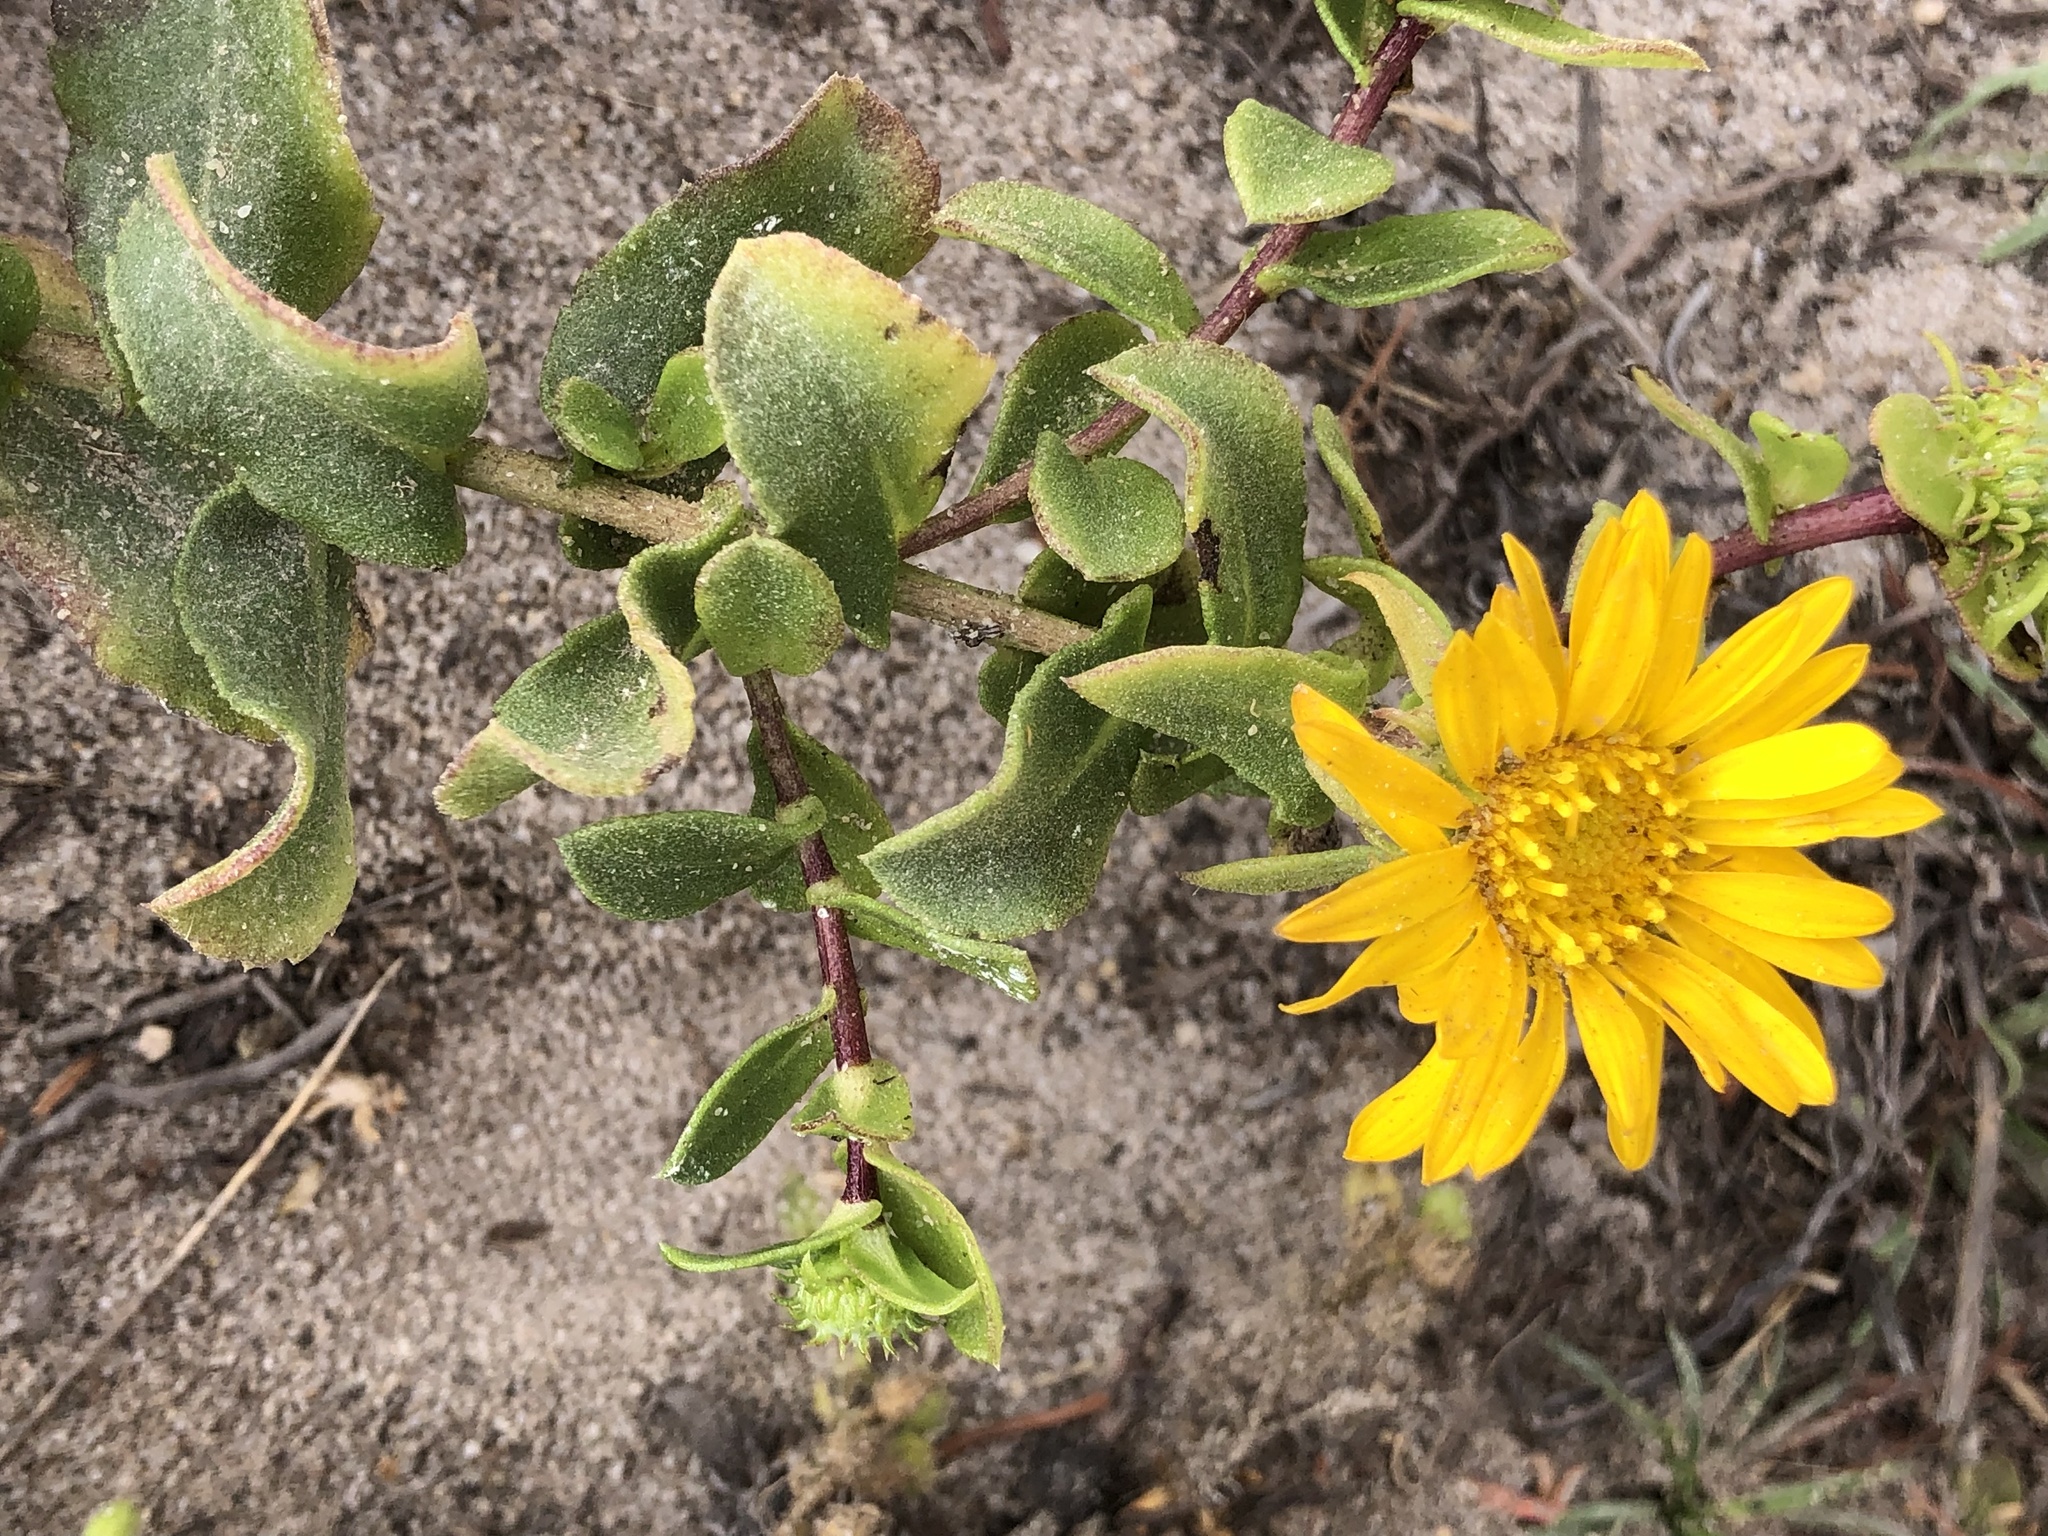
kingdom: Plantae
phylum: Tracheophyta
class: Magnoliopsida
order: Asterales
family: Asteraceae
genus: Grindelia
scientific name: Grindelia hirsutula
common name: Hairy gumweed
